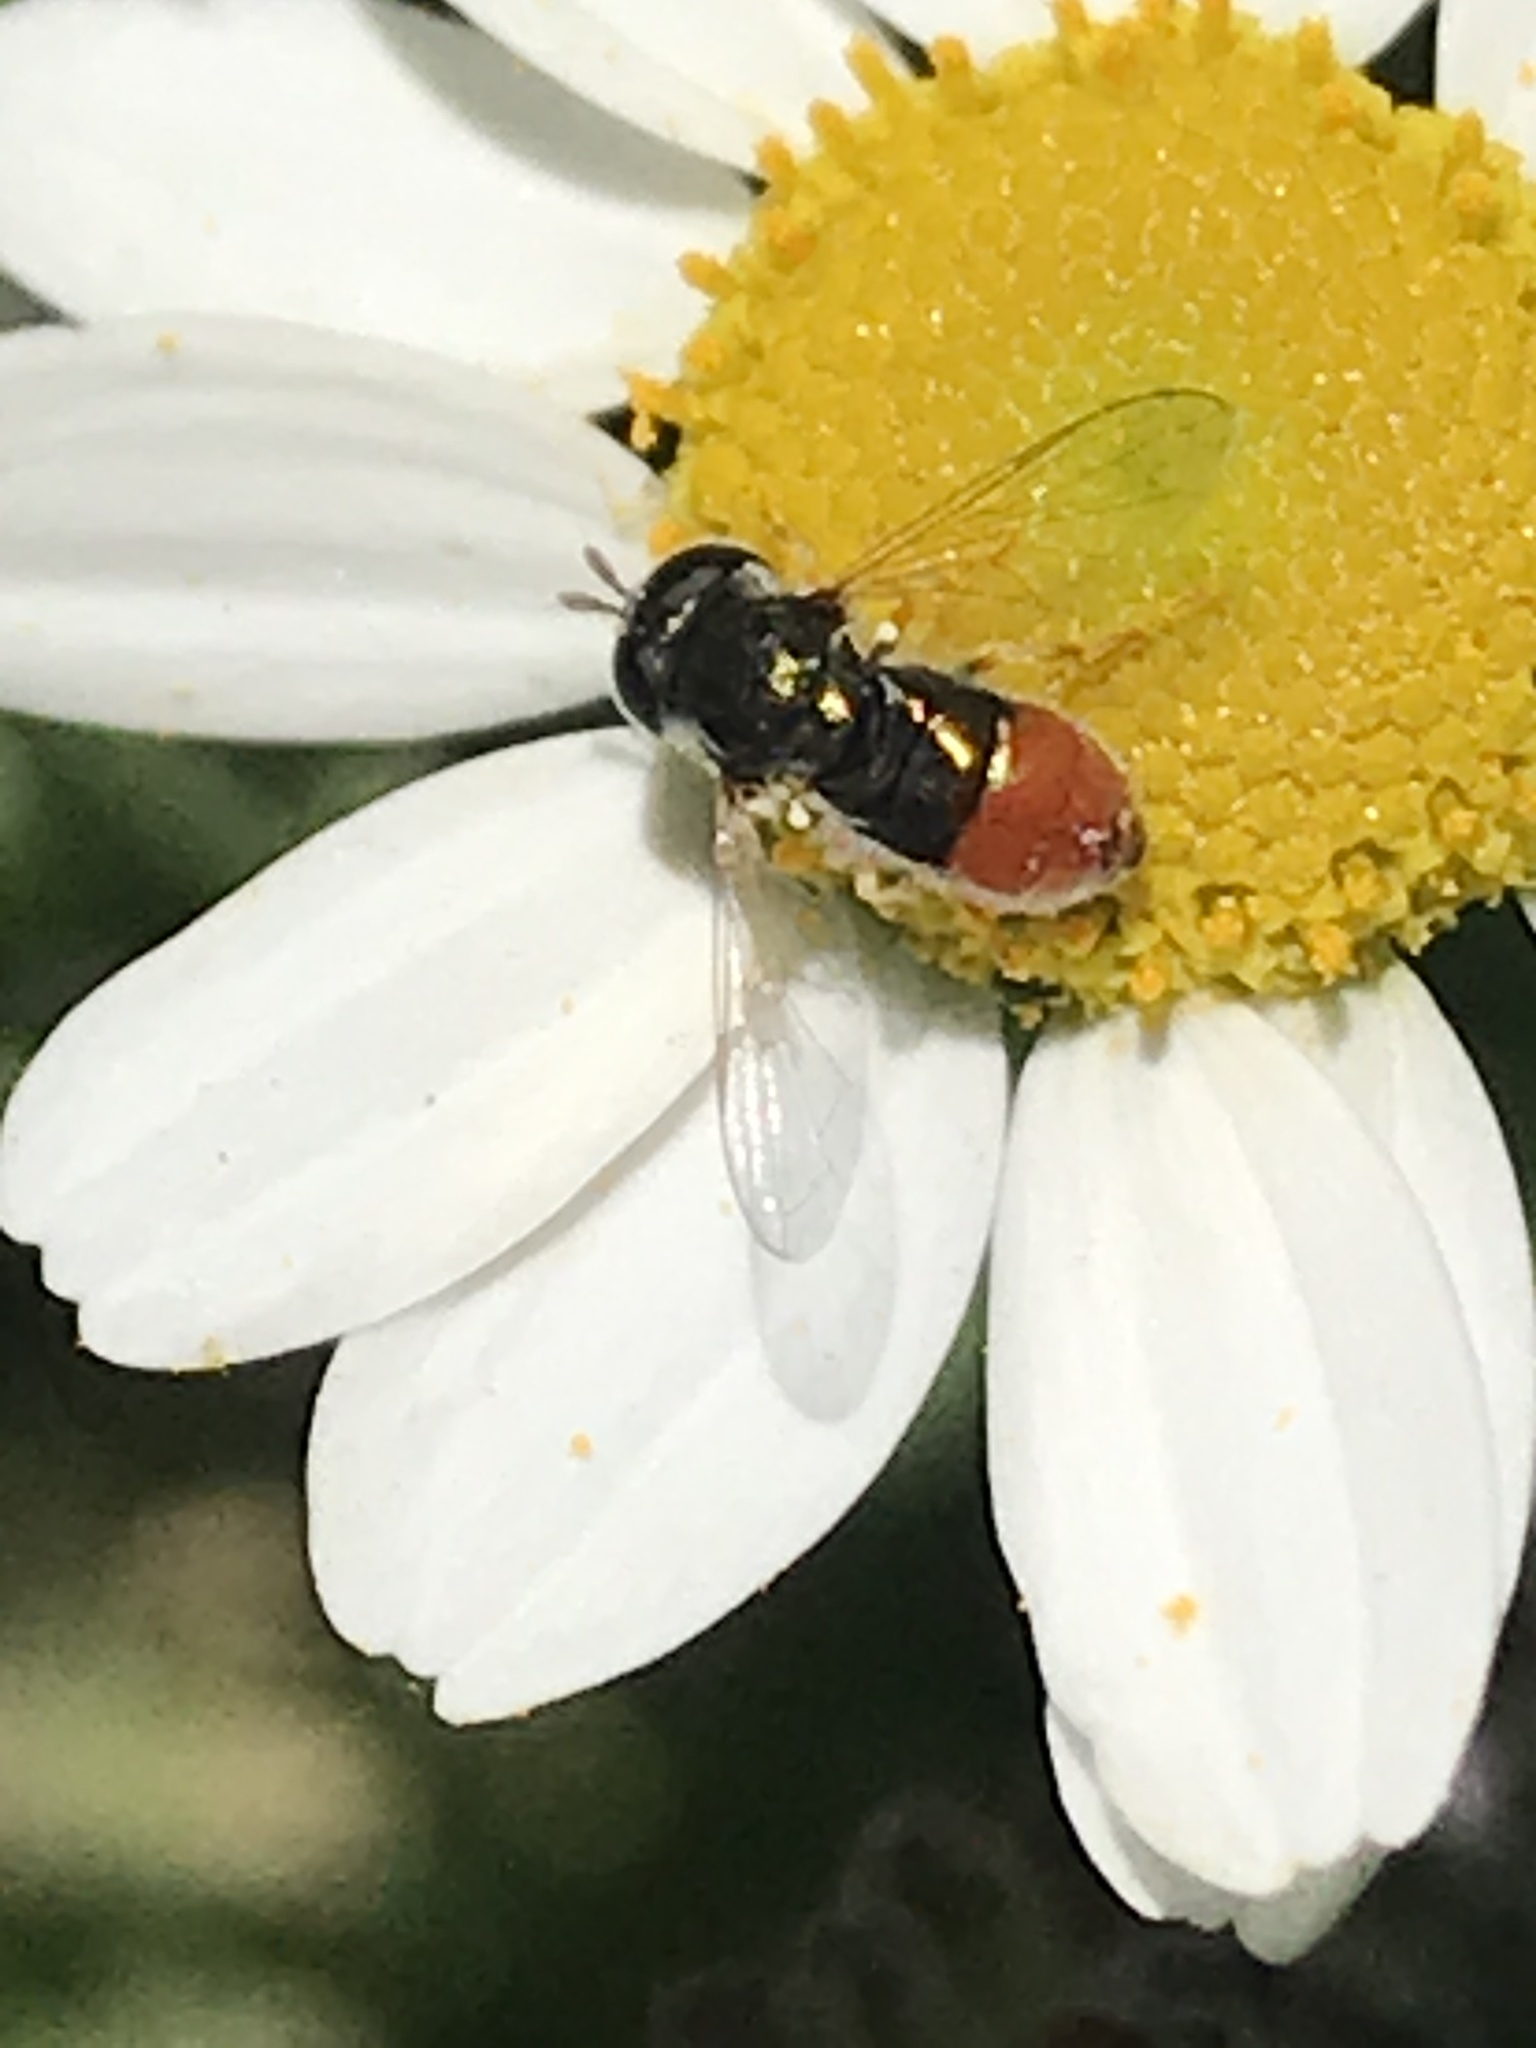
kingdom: Animalia
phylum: Arthropoda
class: Insecta
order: Diptera
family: Syrphidae
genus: Paragus
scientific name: Paragus haemorrhous
